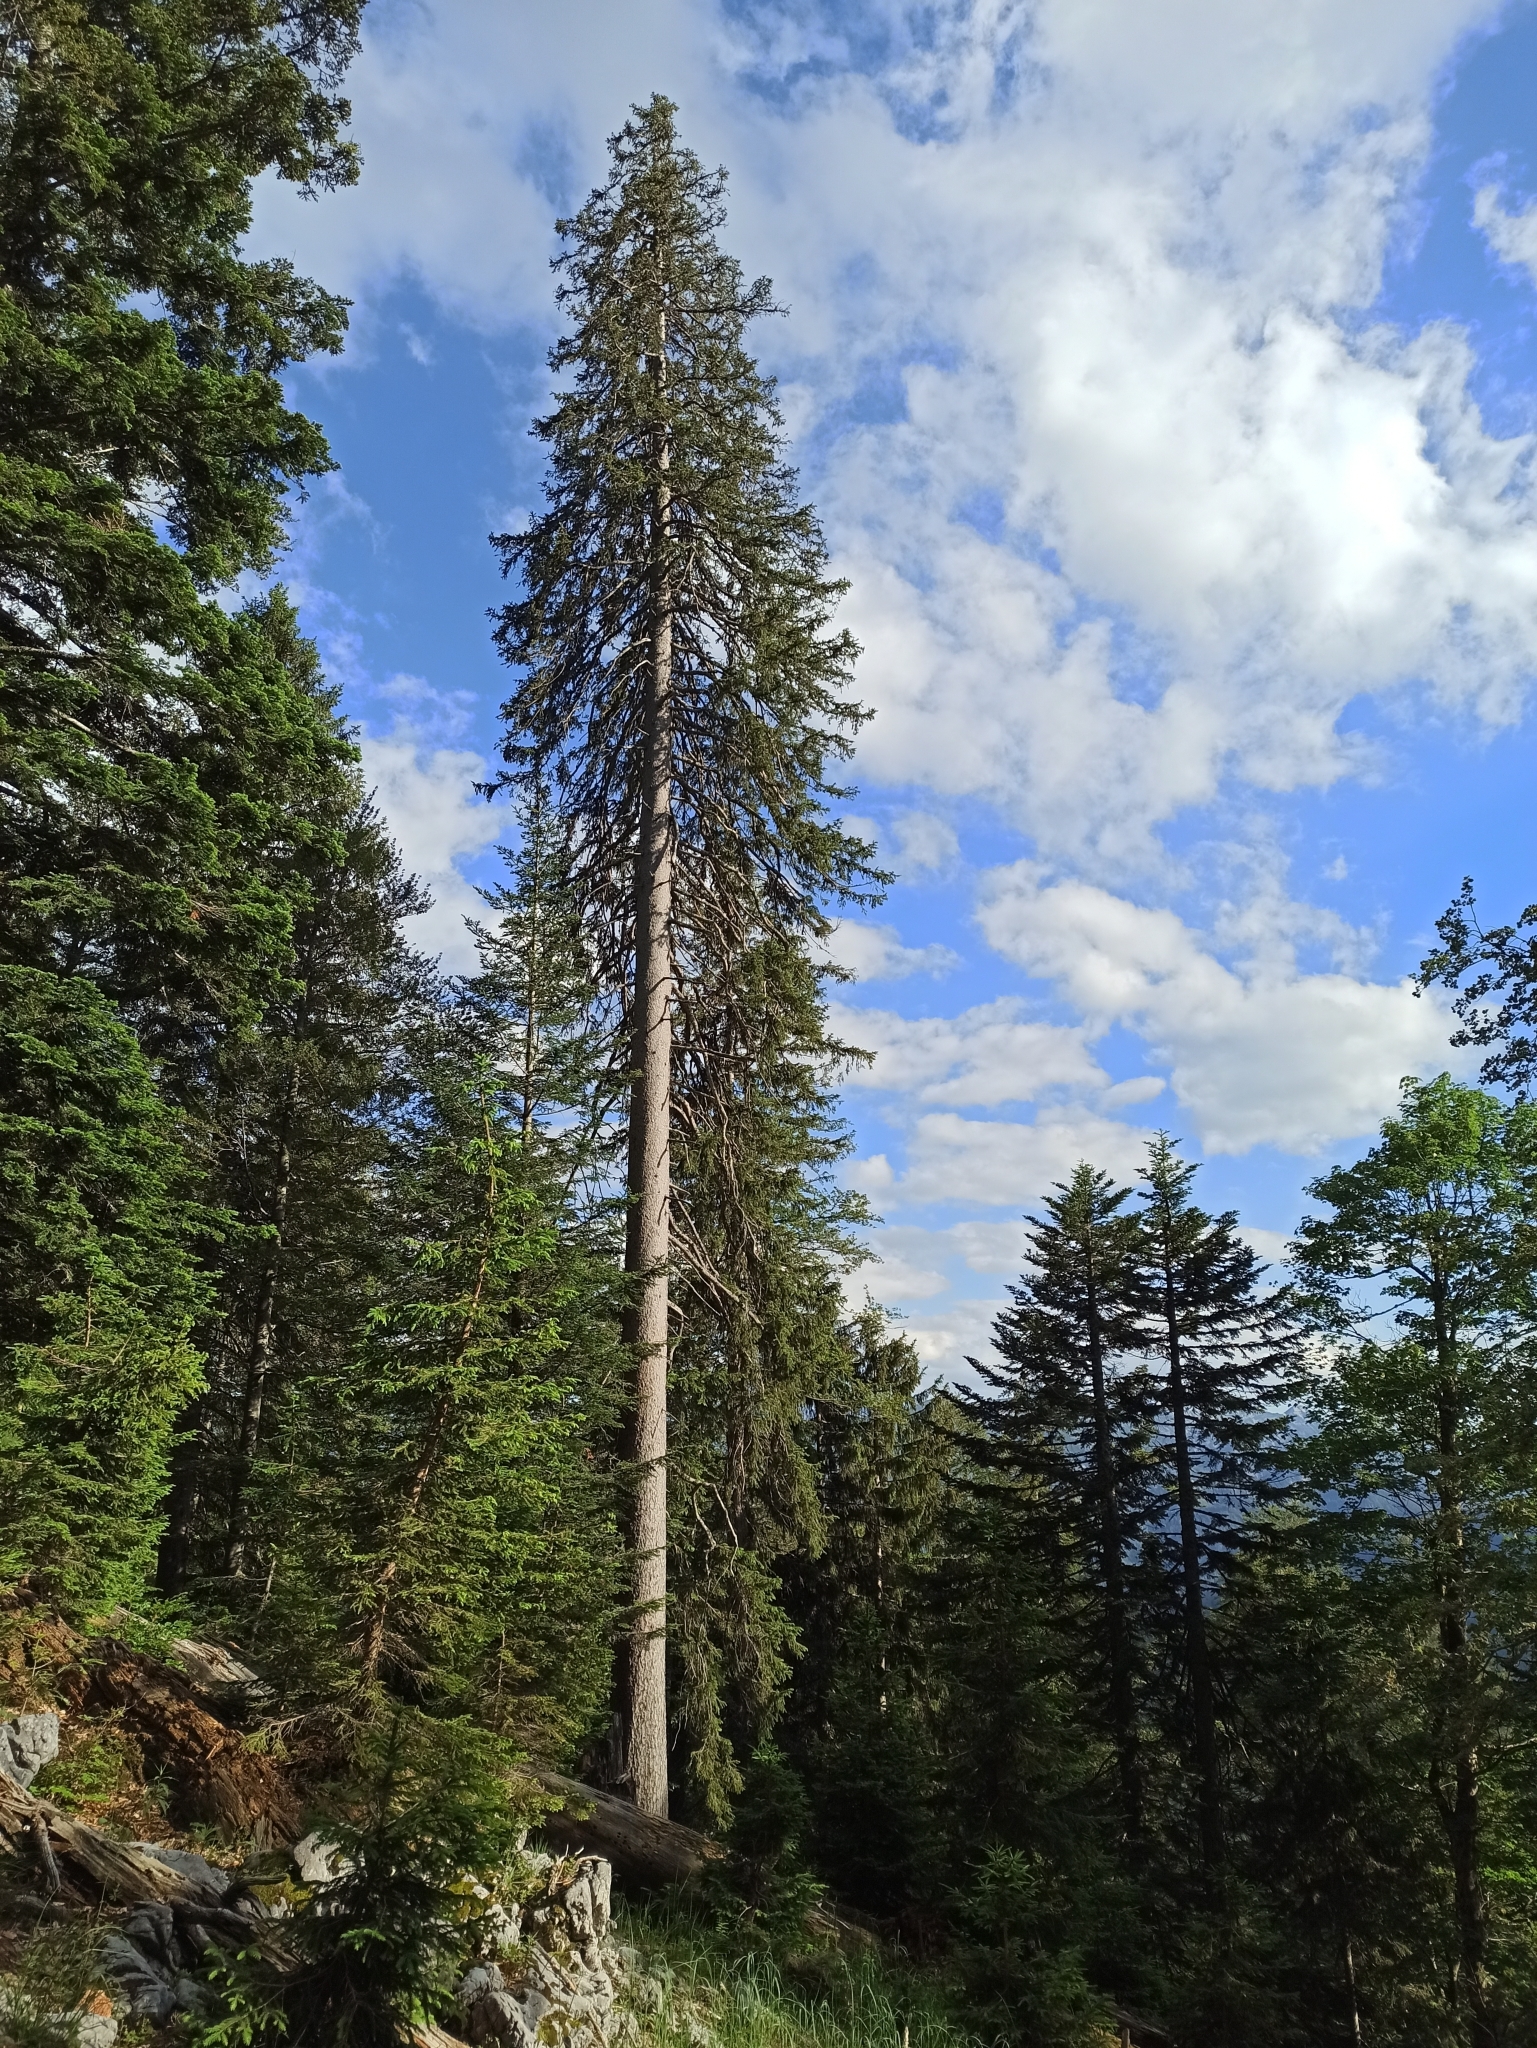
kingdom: Plantae
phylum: Tracheophyta
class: Pinopsida
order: Pinales
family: Pinaceae
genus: Picea
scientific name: Picea abies
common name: Norway spruce
